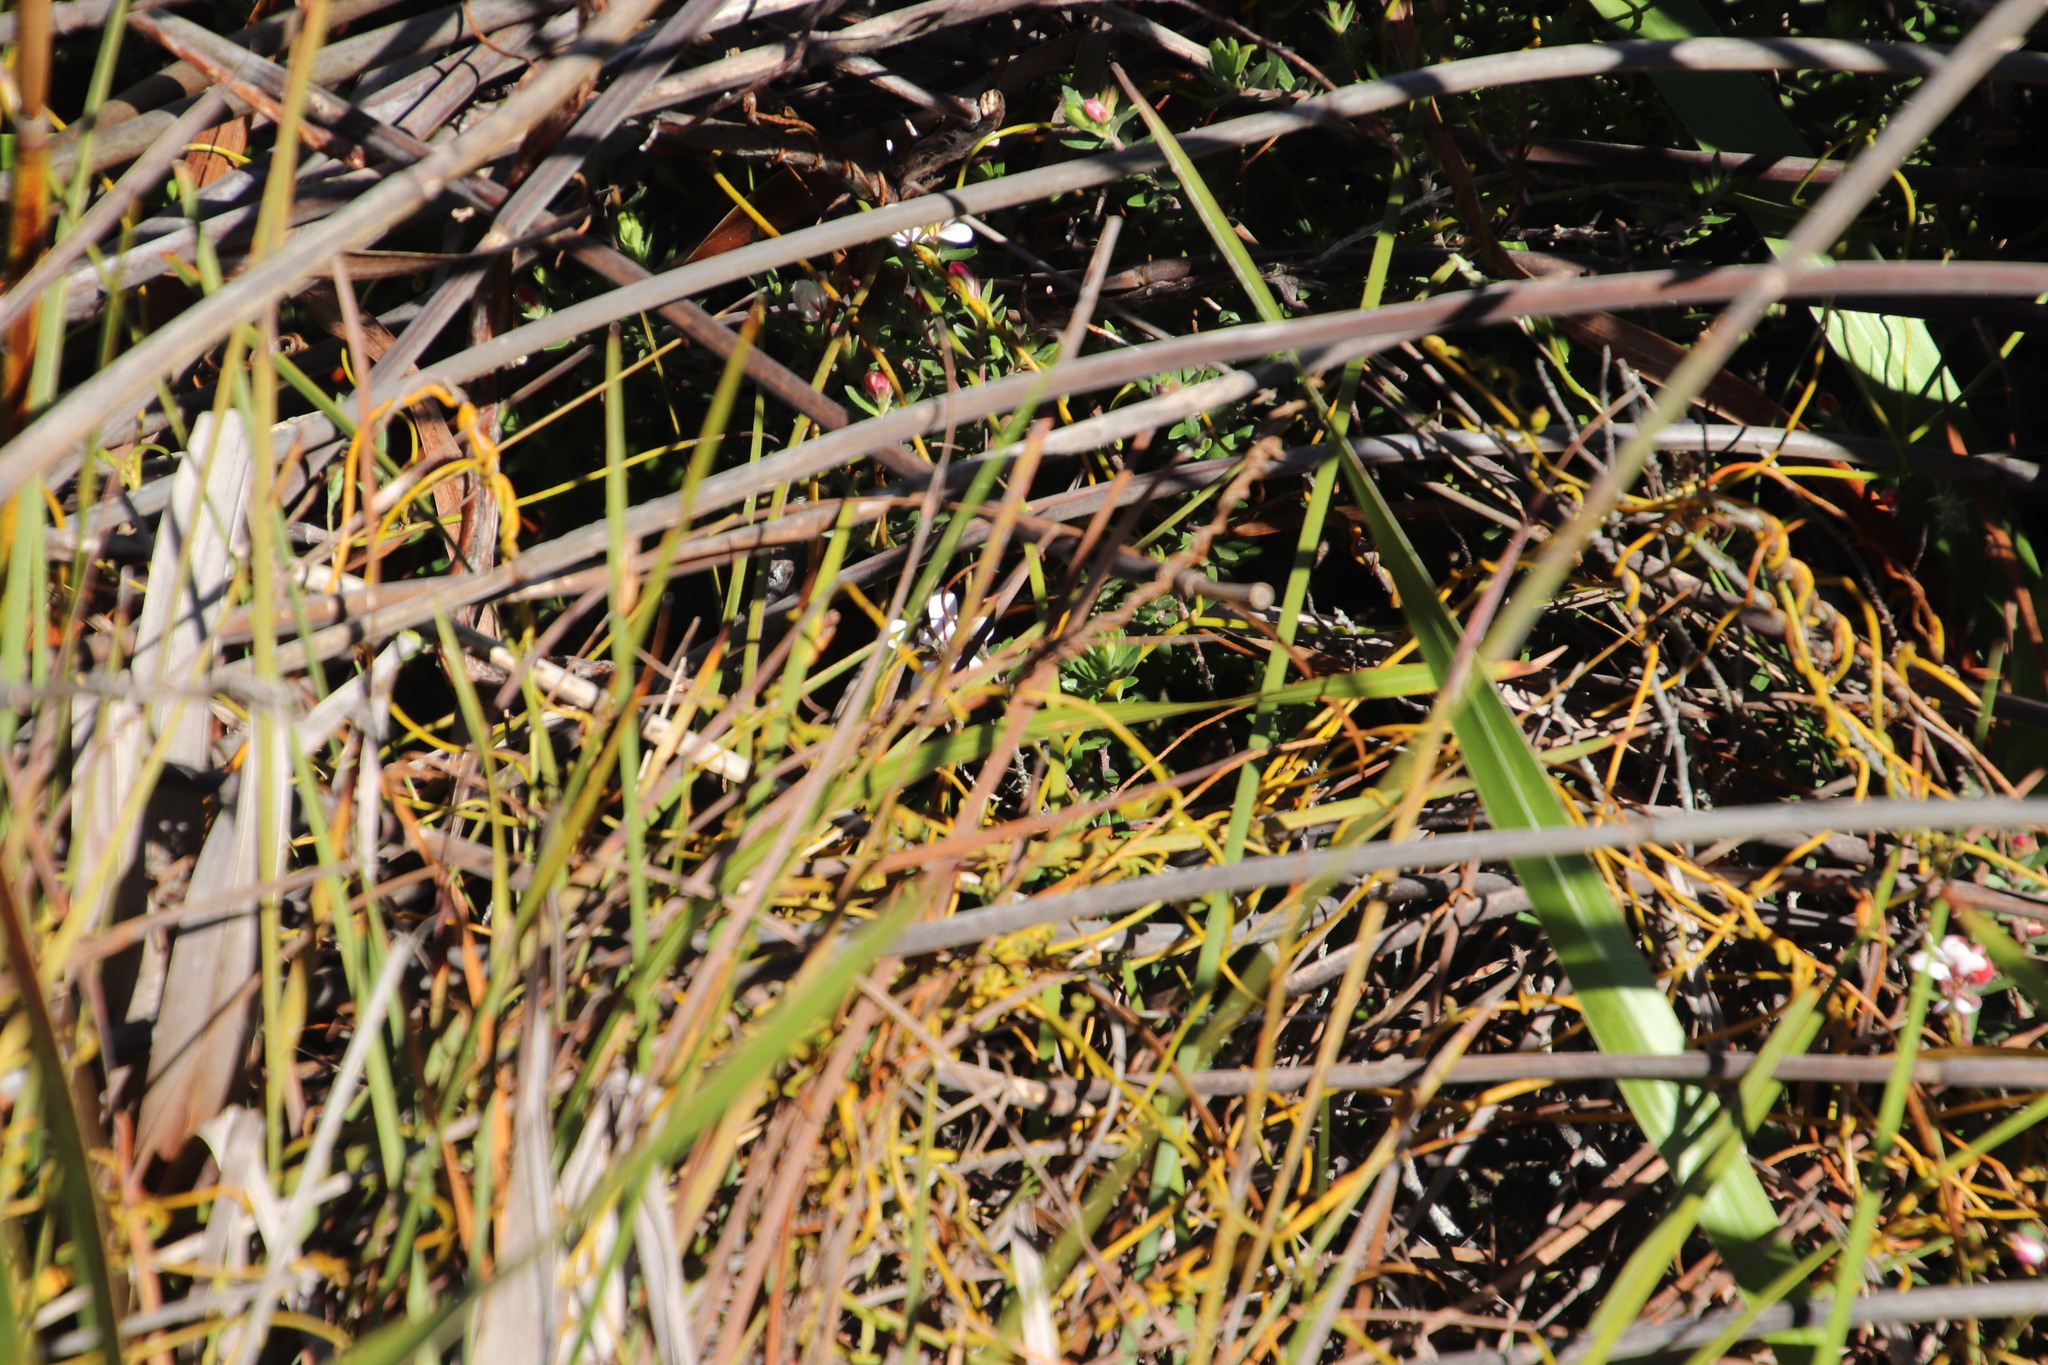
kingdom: Plantae
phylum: Tracheophyta
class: Liliopsida
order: Poales
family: Cyperaceae
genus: Chrysitrix
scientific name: Chrysitrix capensis
